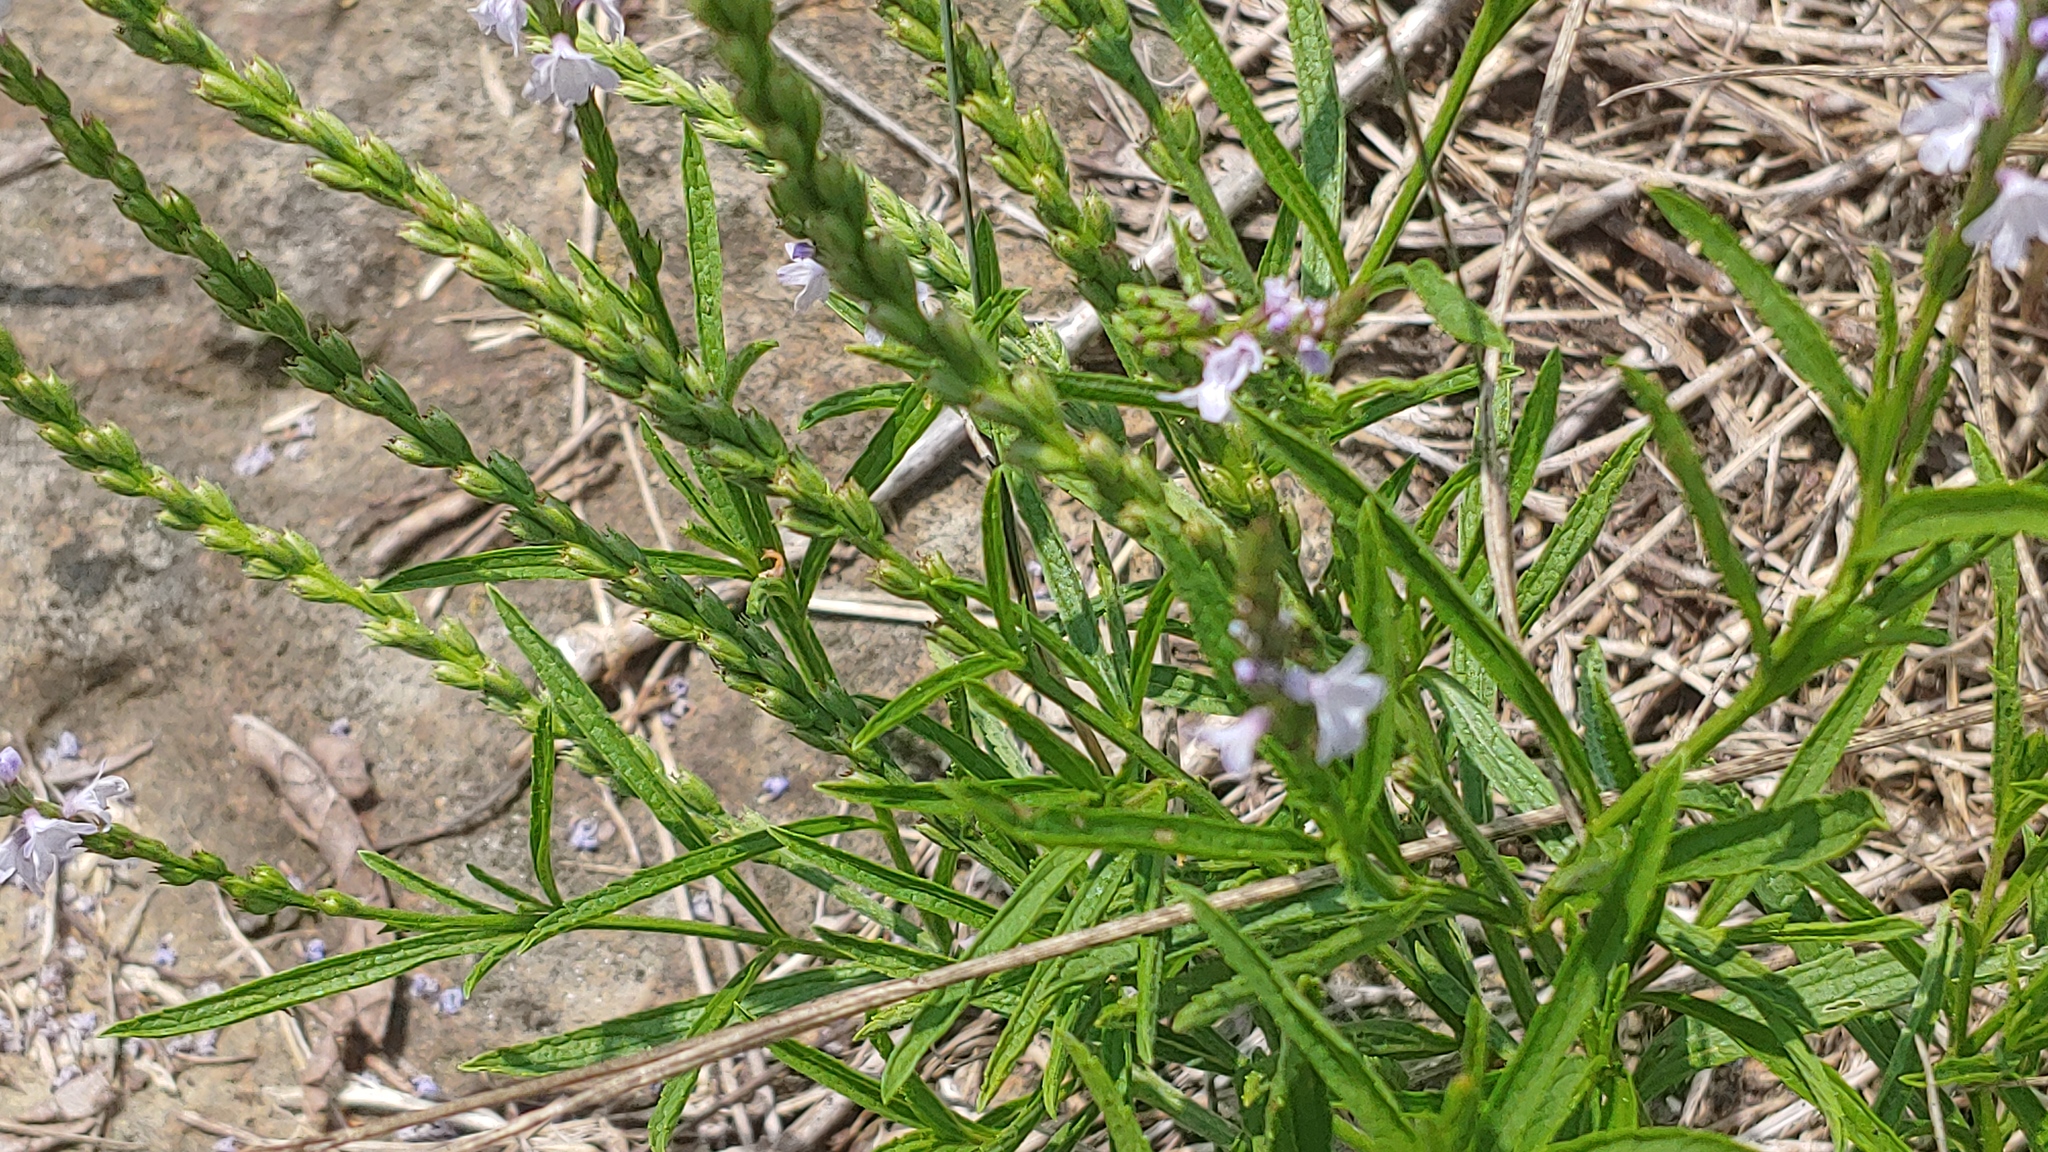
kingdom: Plantae
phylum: Tracheophyta
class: Magnoliopsida
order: Lamiales
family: Verbenaceae
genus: Verbena
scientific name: Verbena simplex
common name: Narrow-leaf vervain
